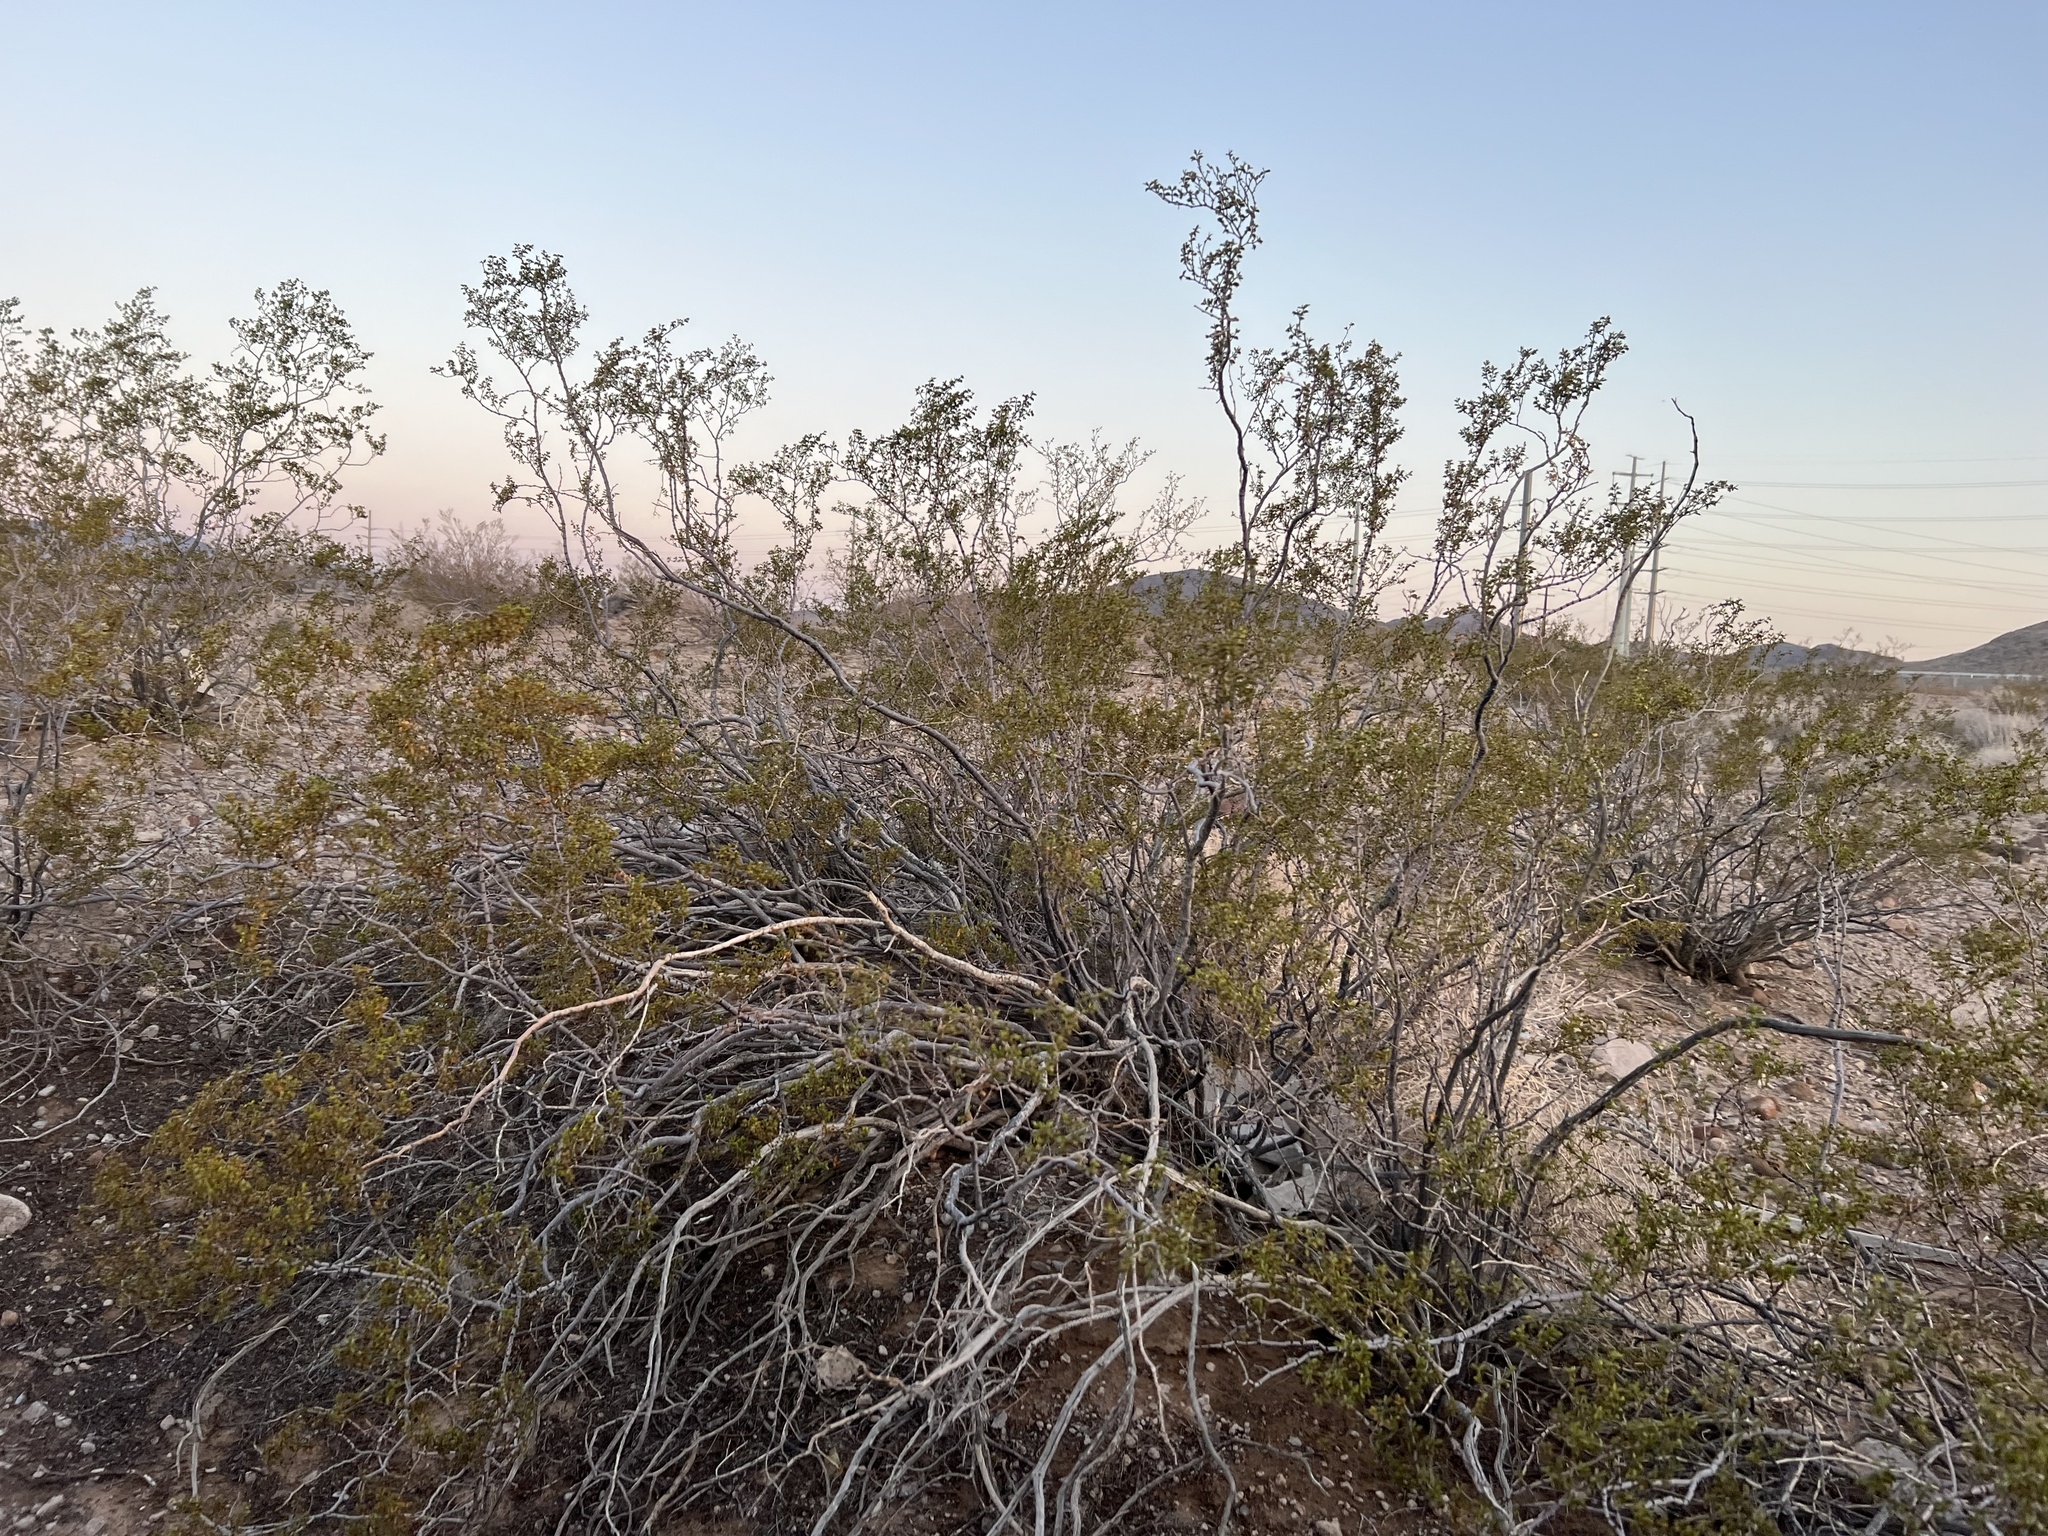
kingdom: Plantae
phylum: Tracheophyta
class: Magnoliopsida
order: Zygophyllales
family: Zygophyllaceae
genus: Larrea
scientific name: Larrea tridentata
